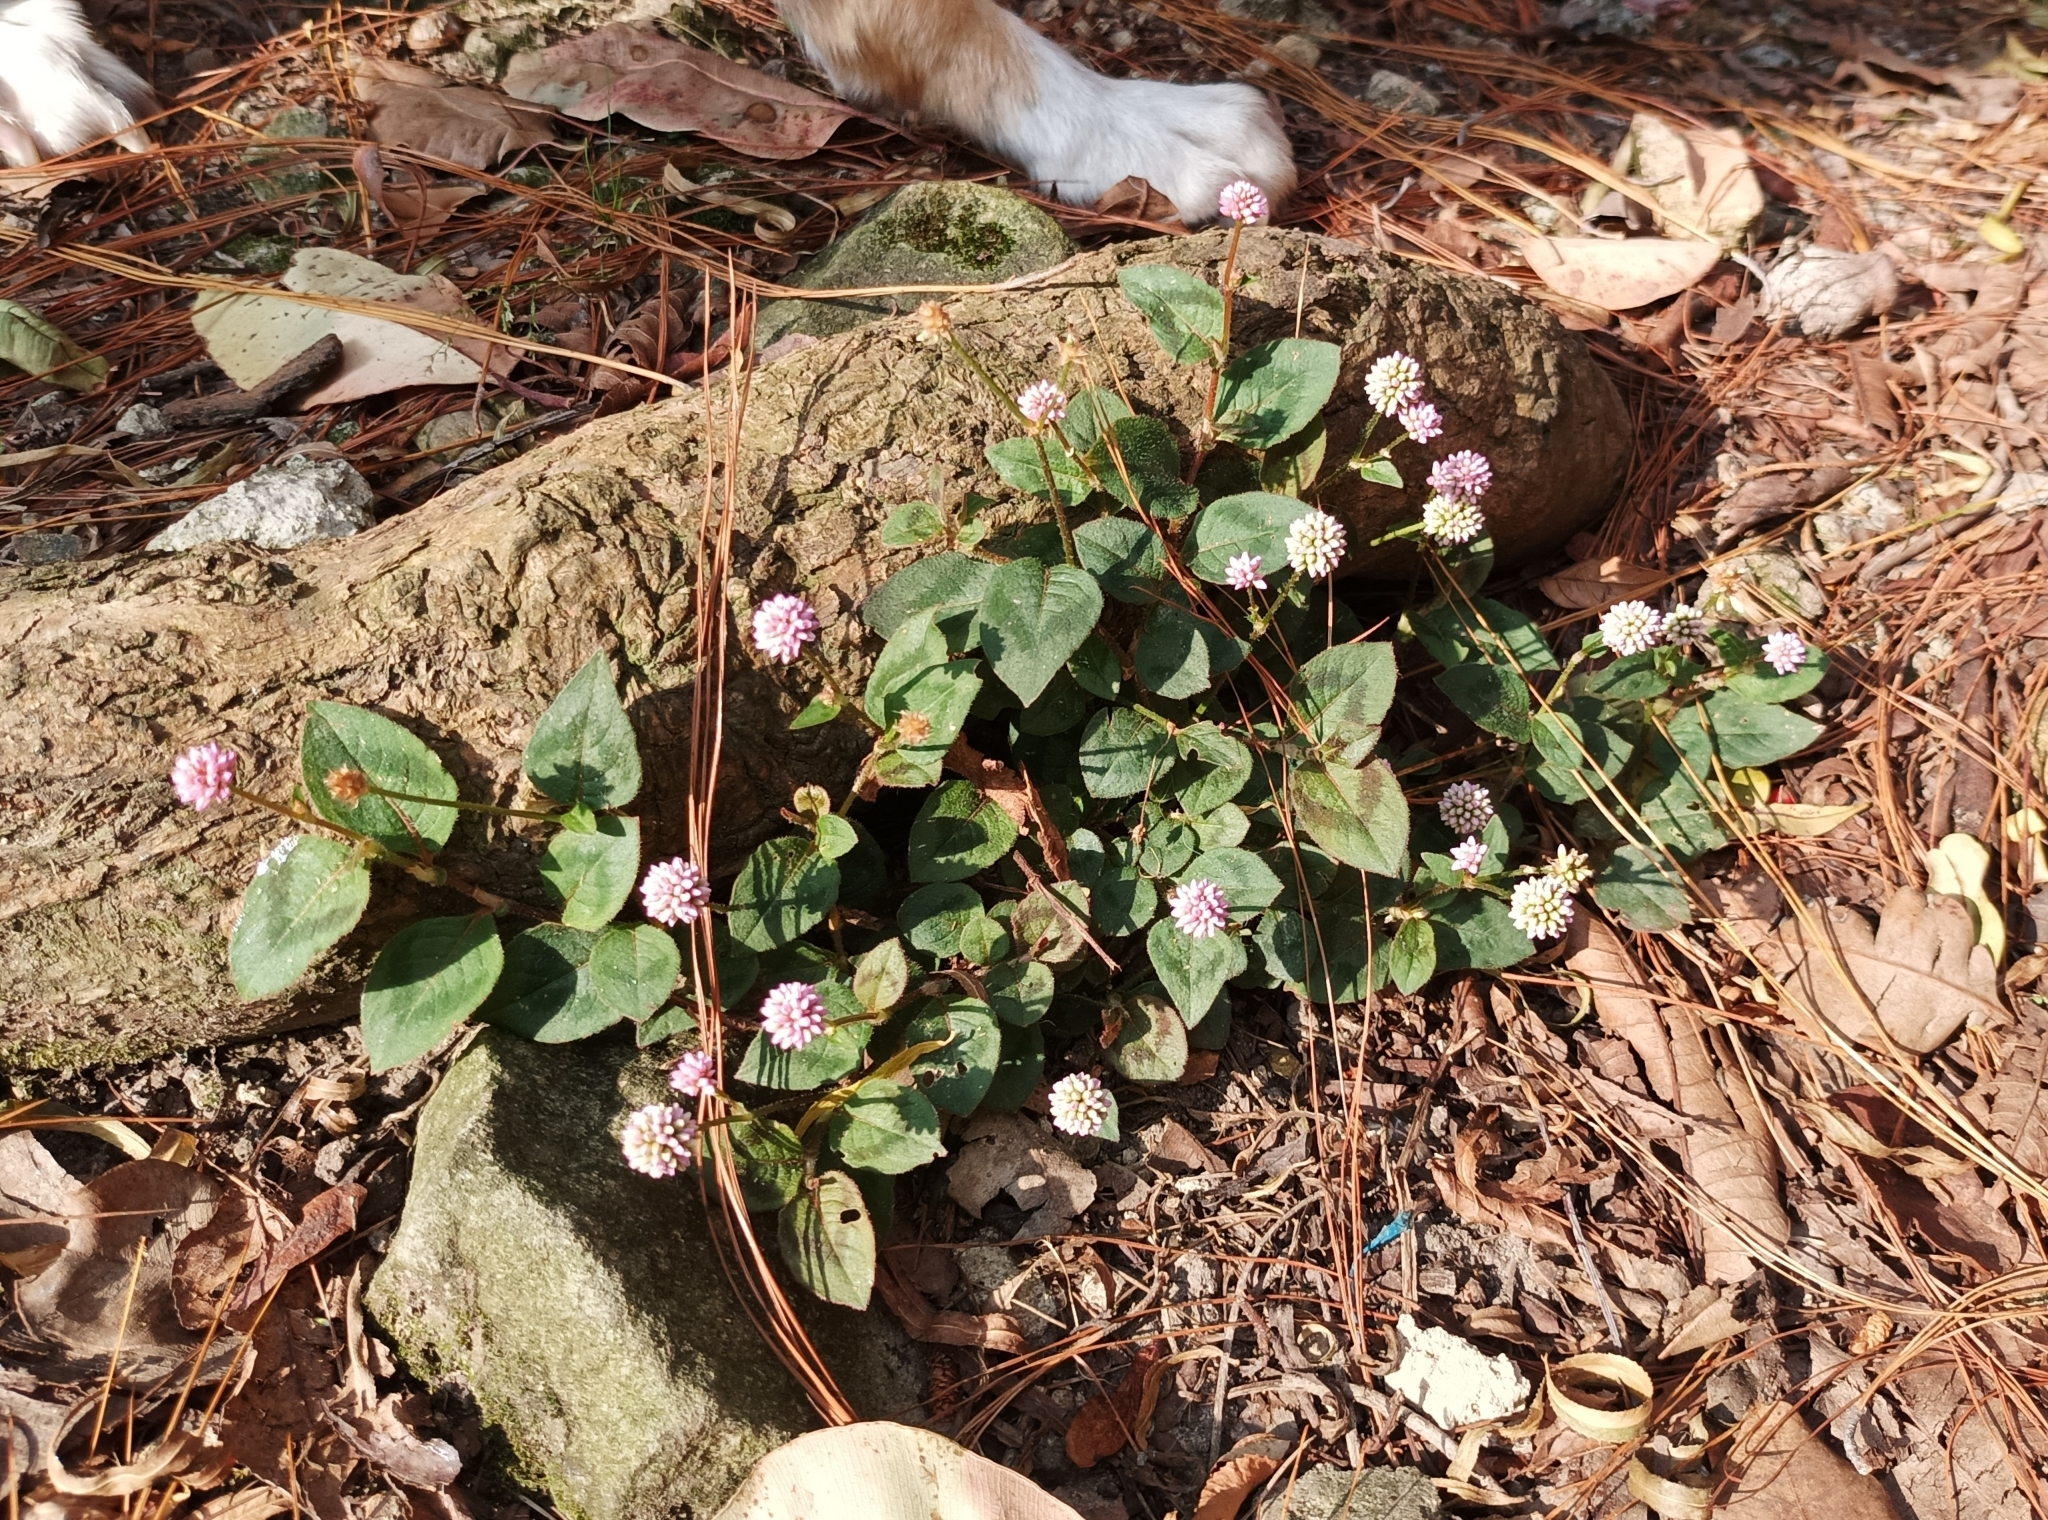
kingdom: Plantae
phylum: Tracheophyta
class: Magnoliopsida
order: Caryophyllales
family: Polygonaceae
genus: Persicaria
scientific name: Persicaria capitata
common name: Pinkhead smartweed
